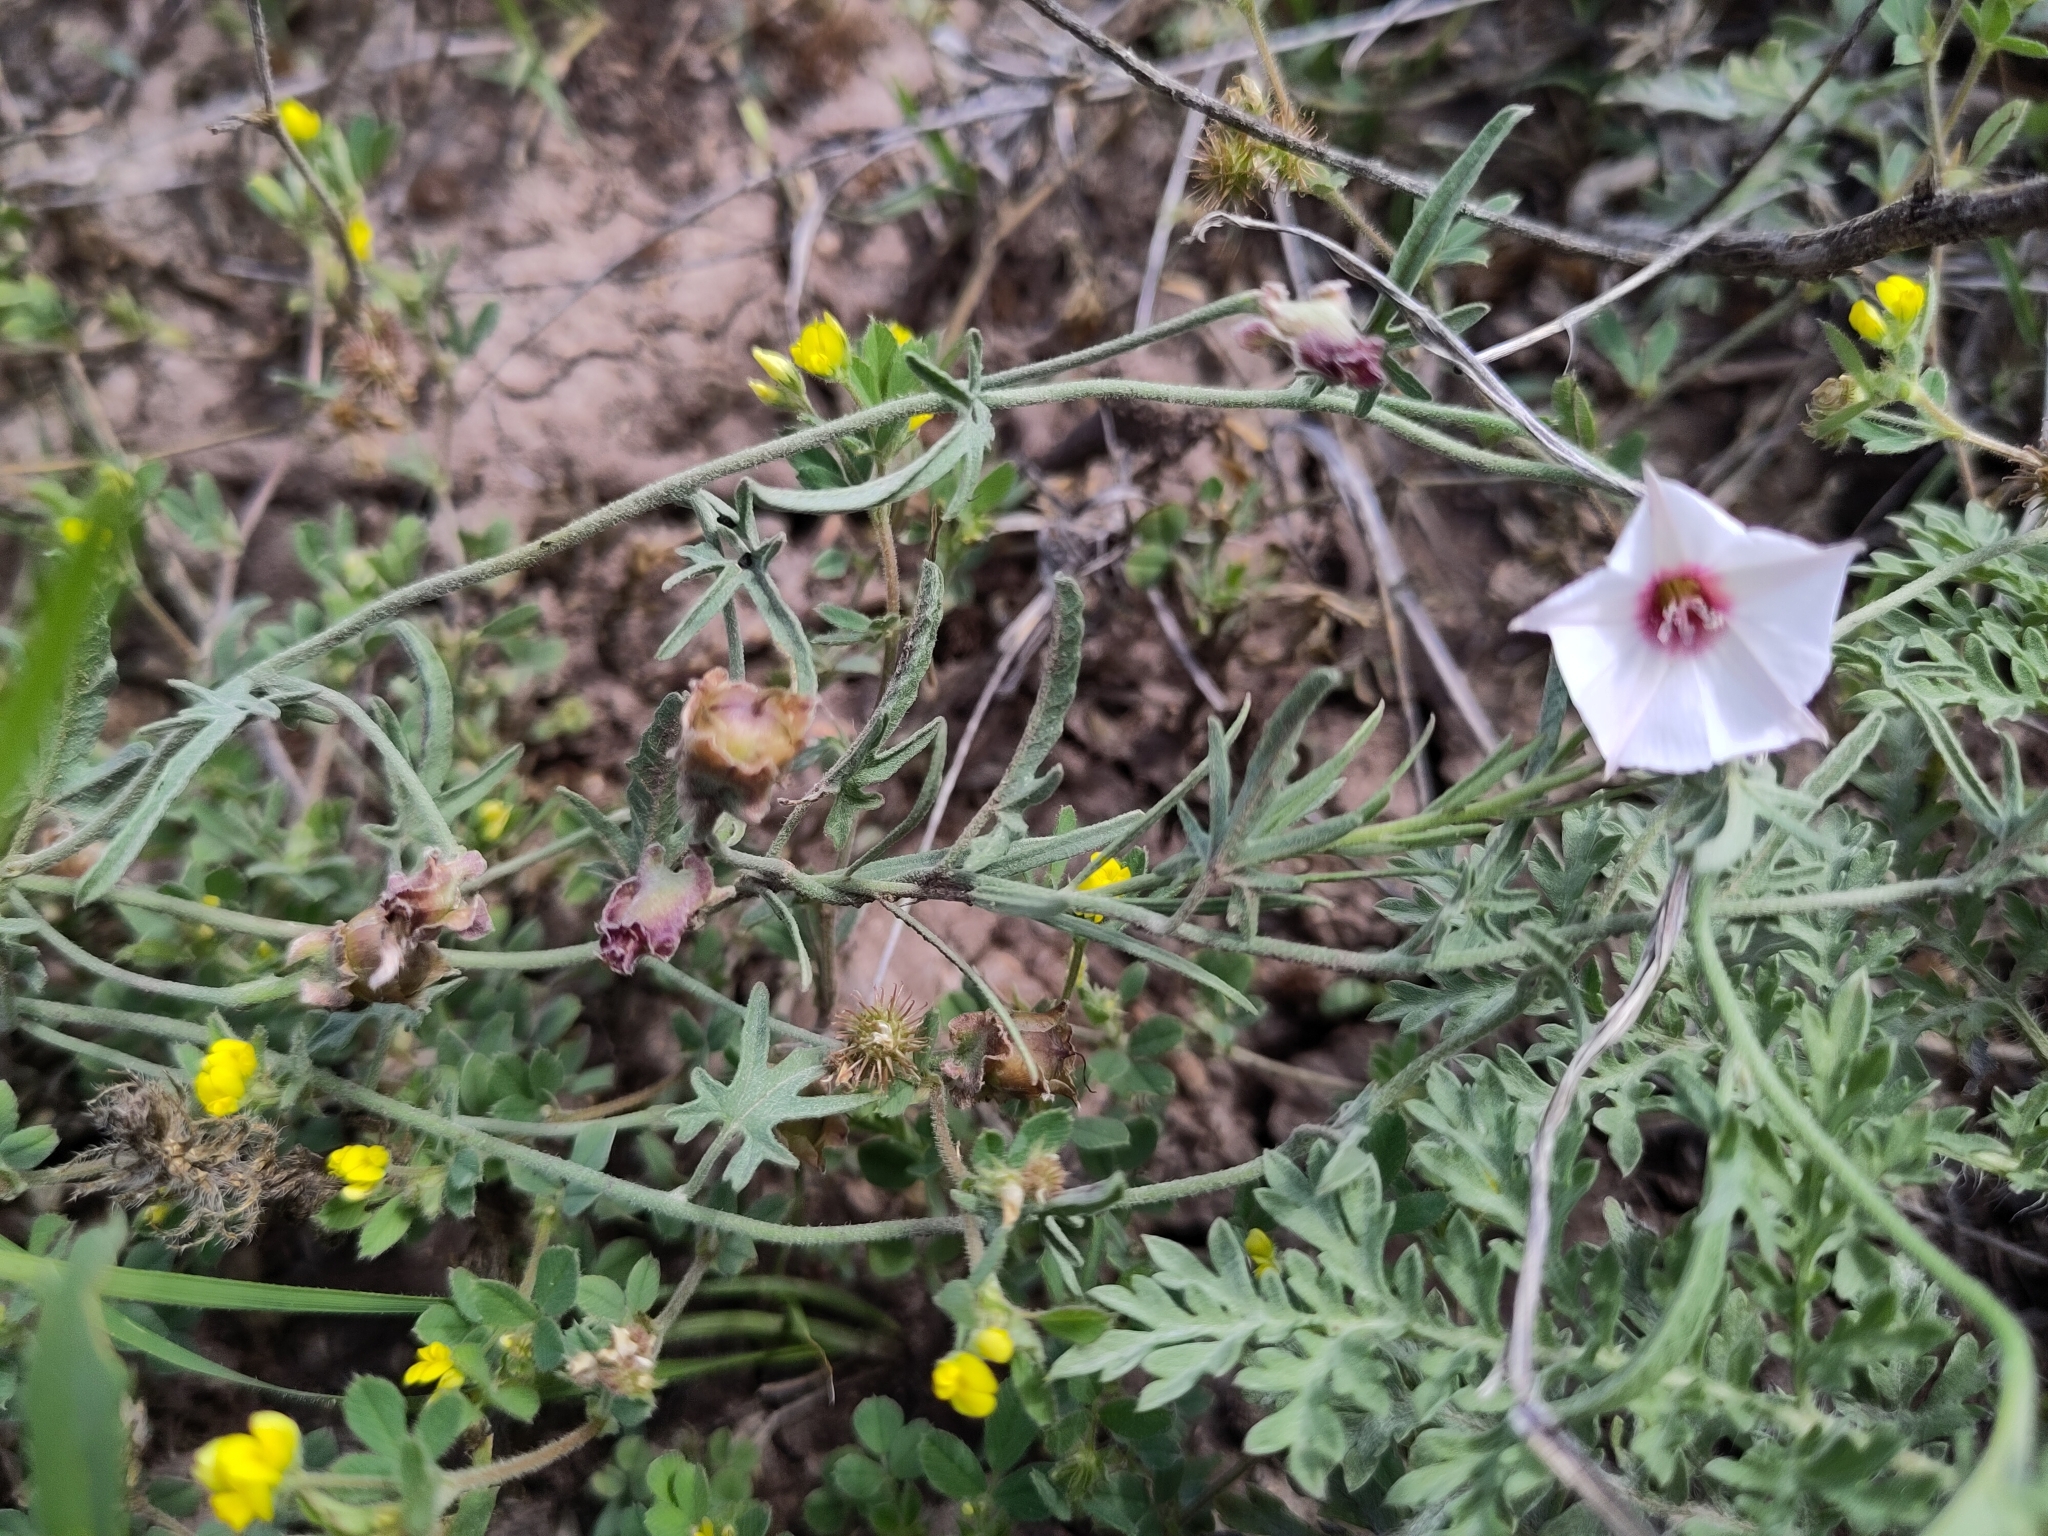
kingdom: Plantae
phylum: Tracheophyta
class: Magnoliopsida
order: Solanales
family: Convolvulaceae
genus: Convolvulus
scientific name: Convolvulus equitans
